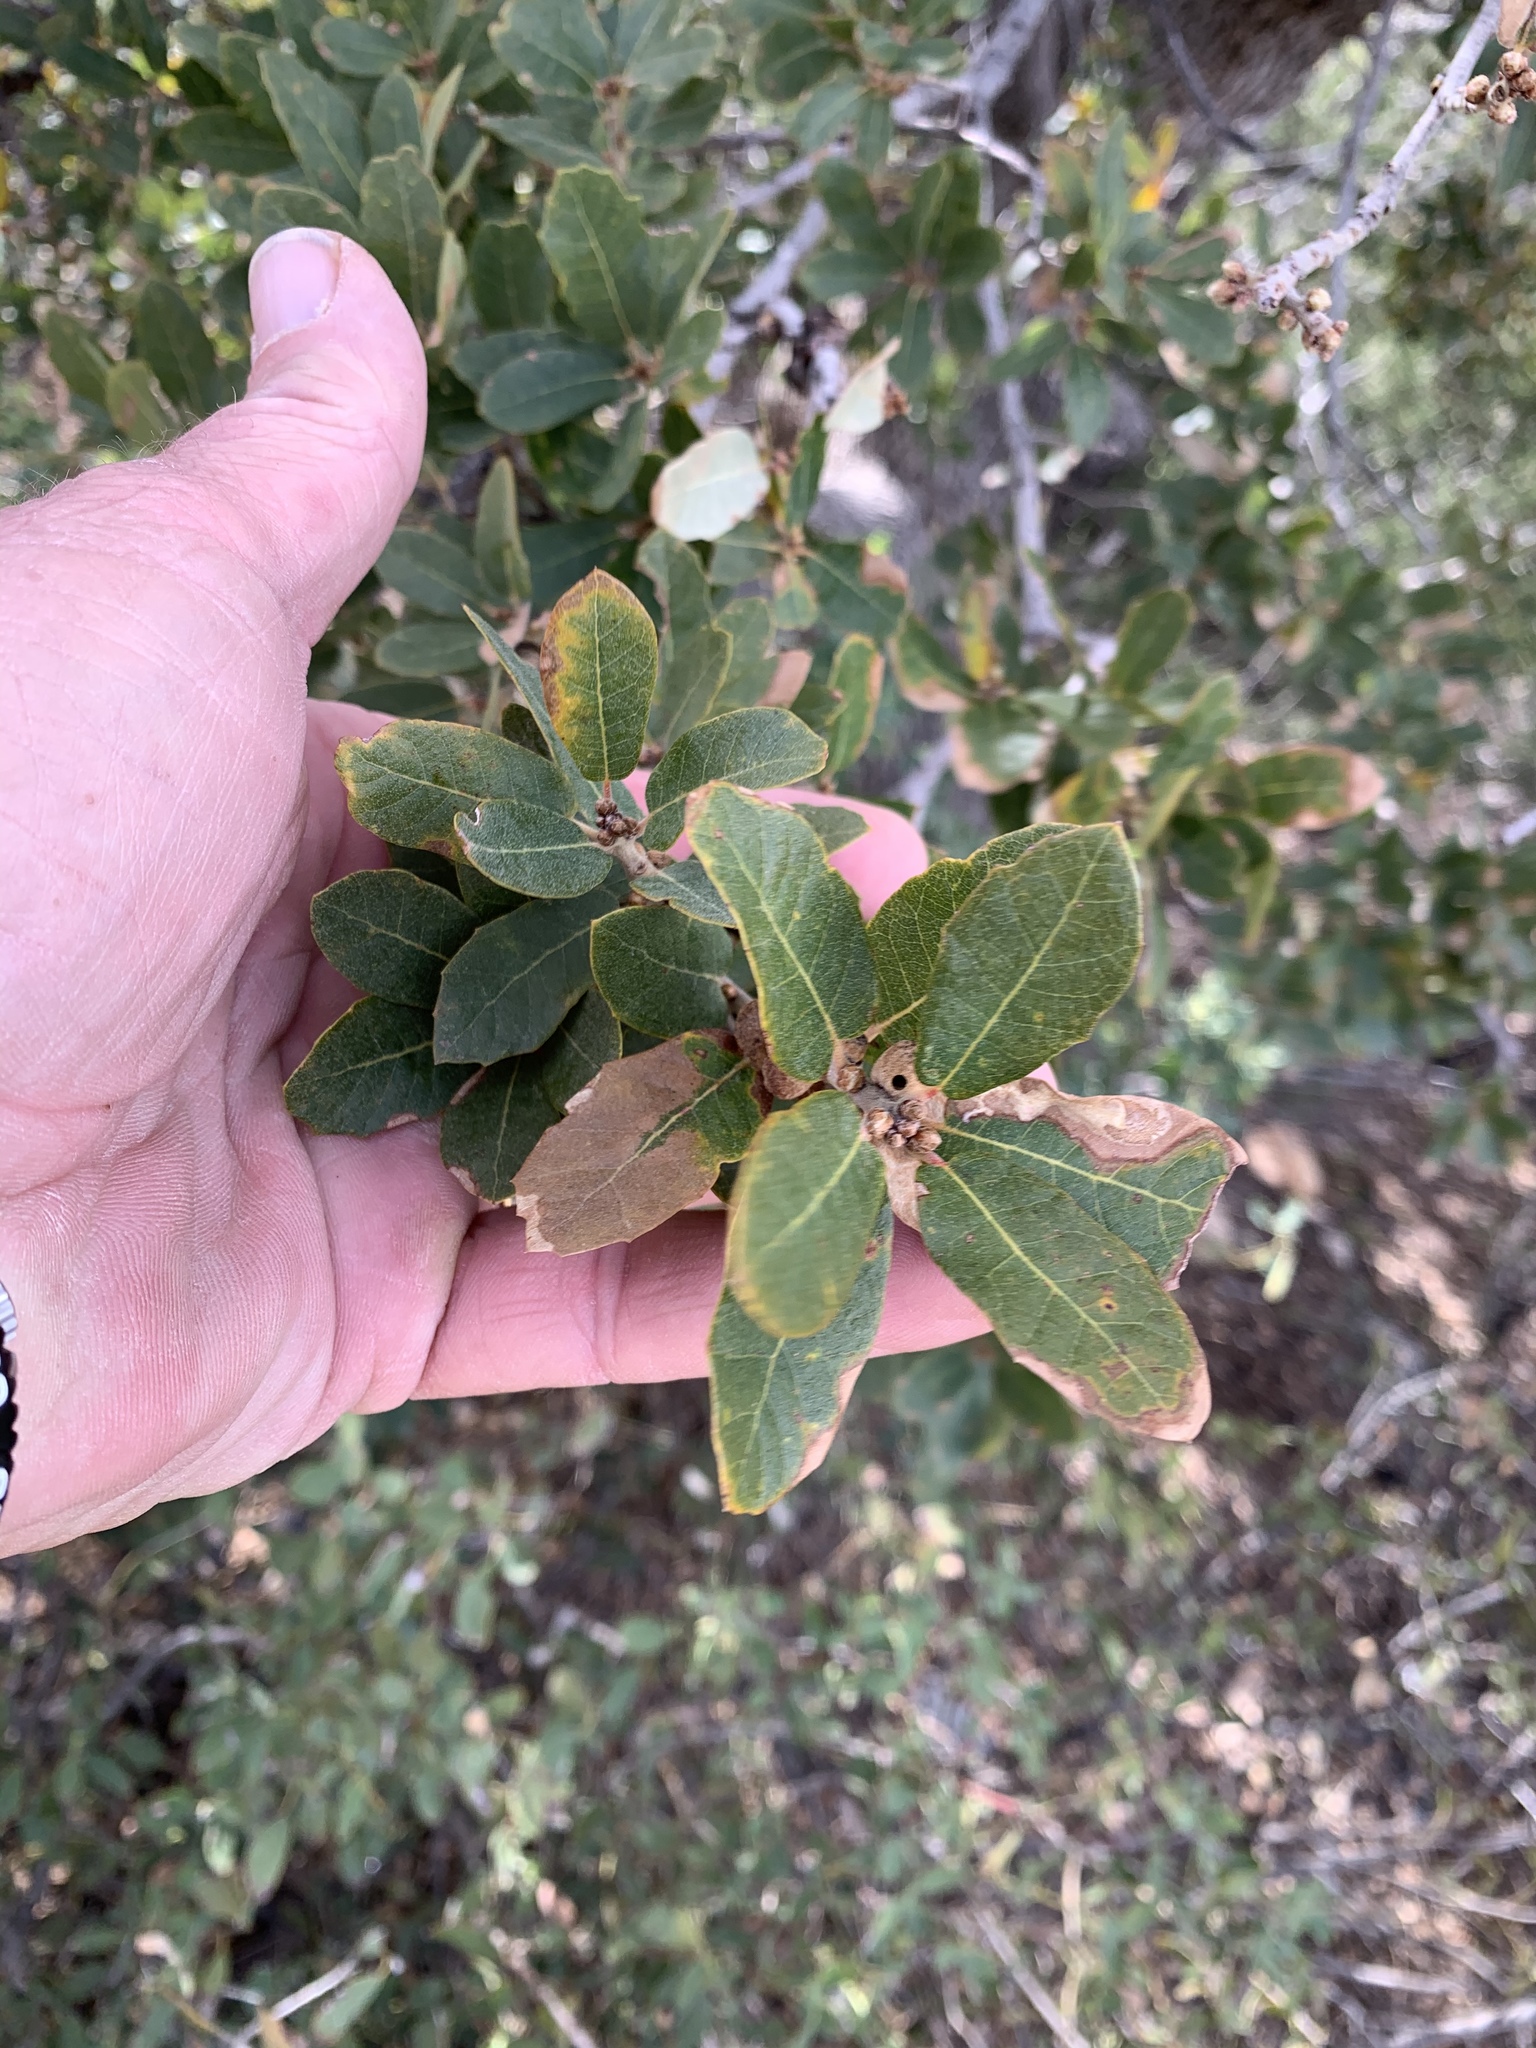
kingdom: Plantae
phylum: Tracheophyta
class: Magnoliopsida
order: Fagales
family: Fagaceae
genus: Quercus
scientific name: Quercus arizonica
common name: Arizona white oak
